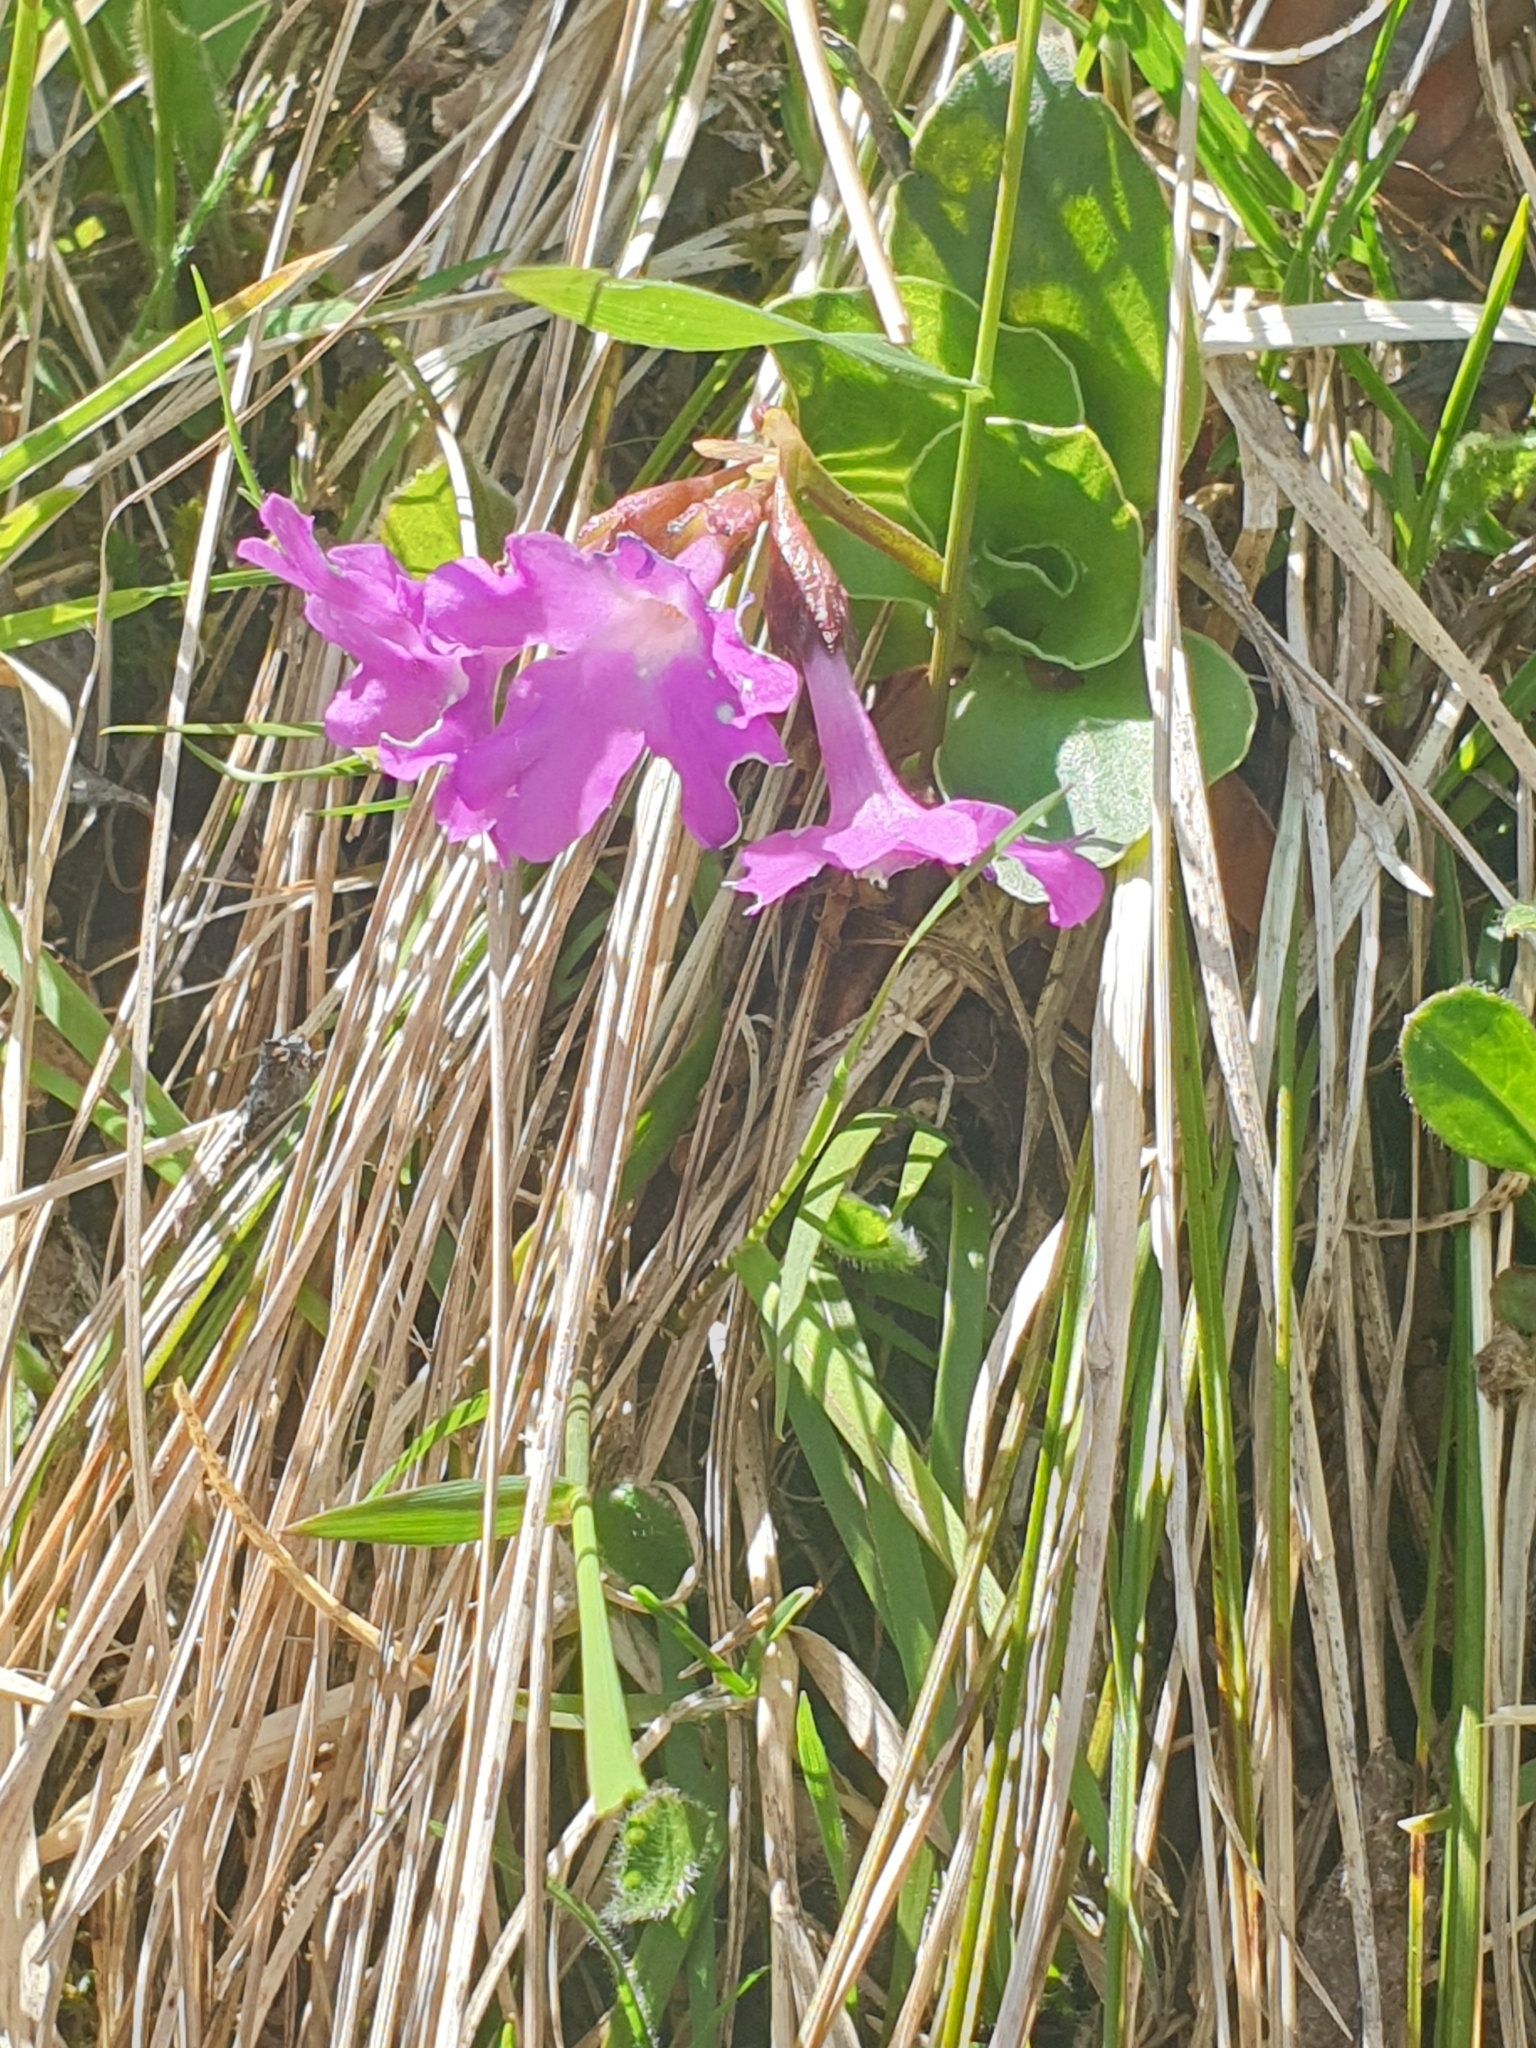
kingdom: Plantae
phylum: Tracheophyta
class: Magnoliopsida
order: Ericales
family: Primulaceae
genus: Primula
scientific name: Primula spectabilis
